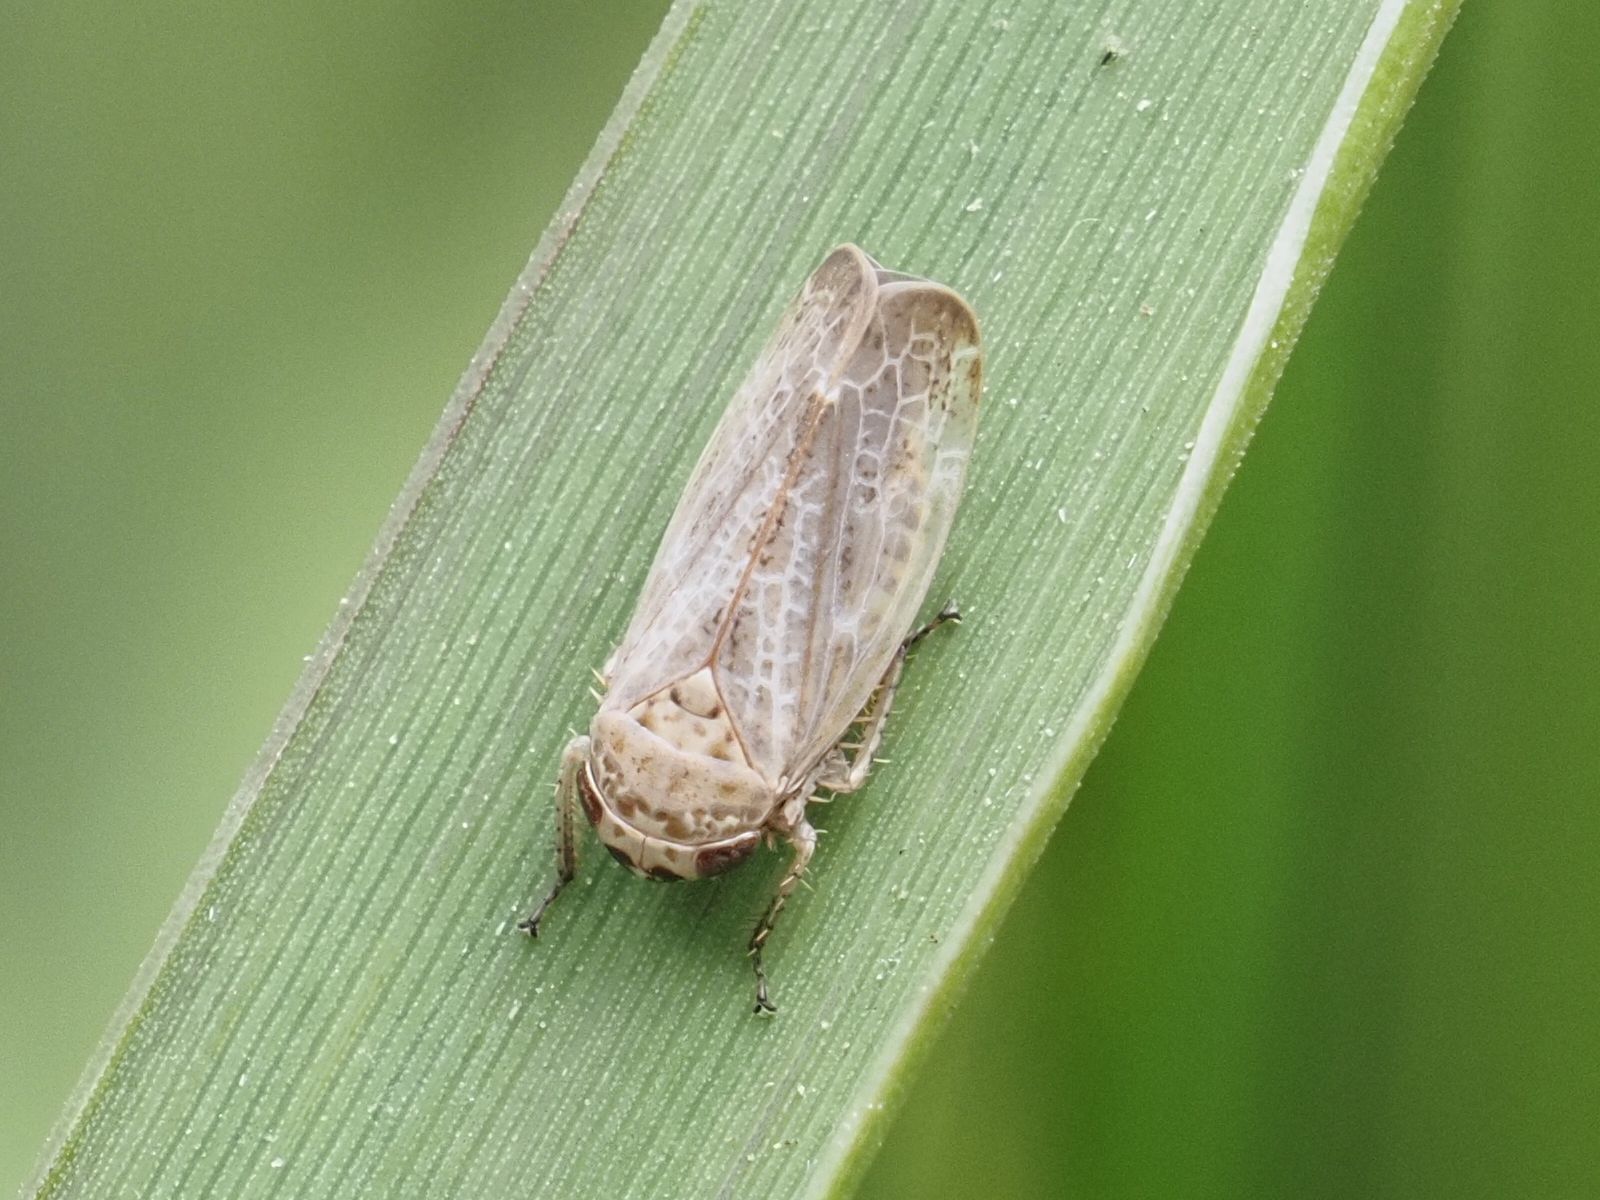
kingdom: Animalia
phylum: Arthropoda
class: Insecta
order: Hemiptera
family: Cicadellidae
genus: Allygidius
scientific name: Allygidius abbreviatus
